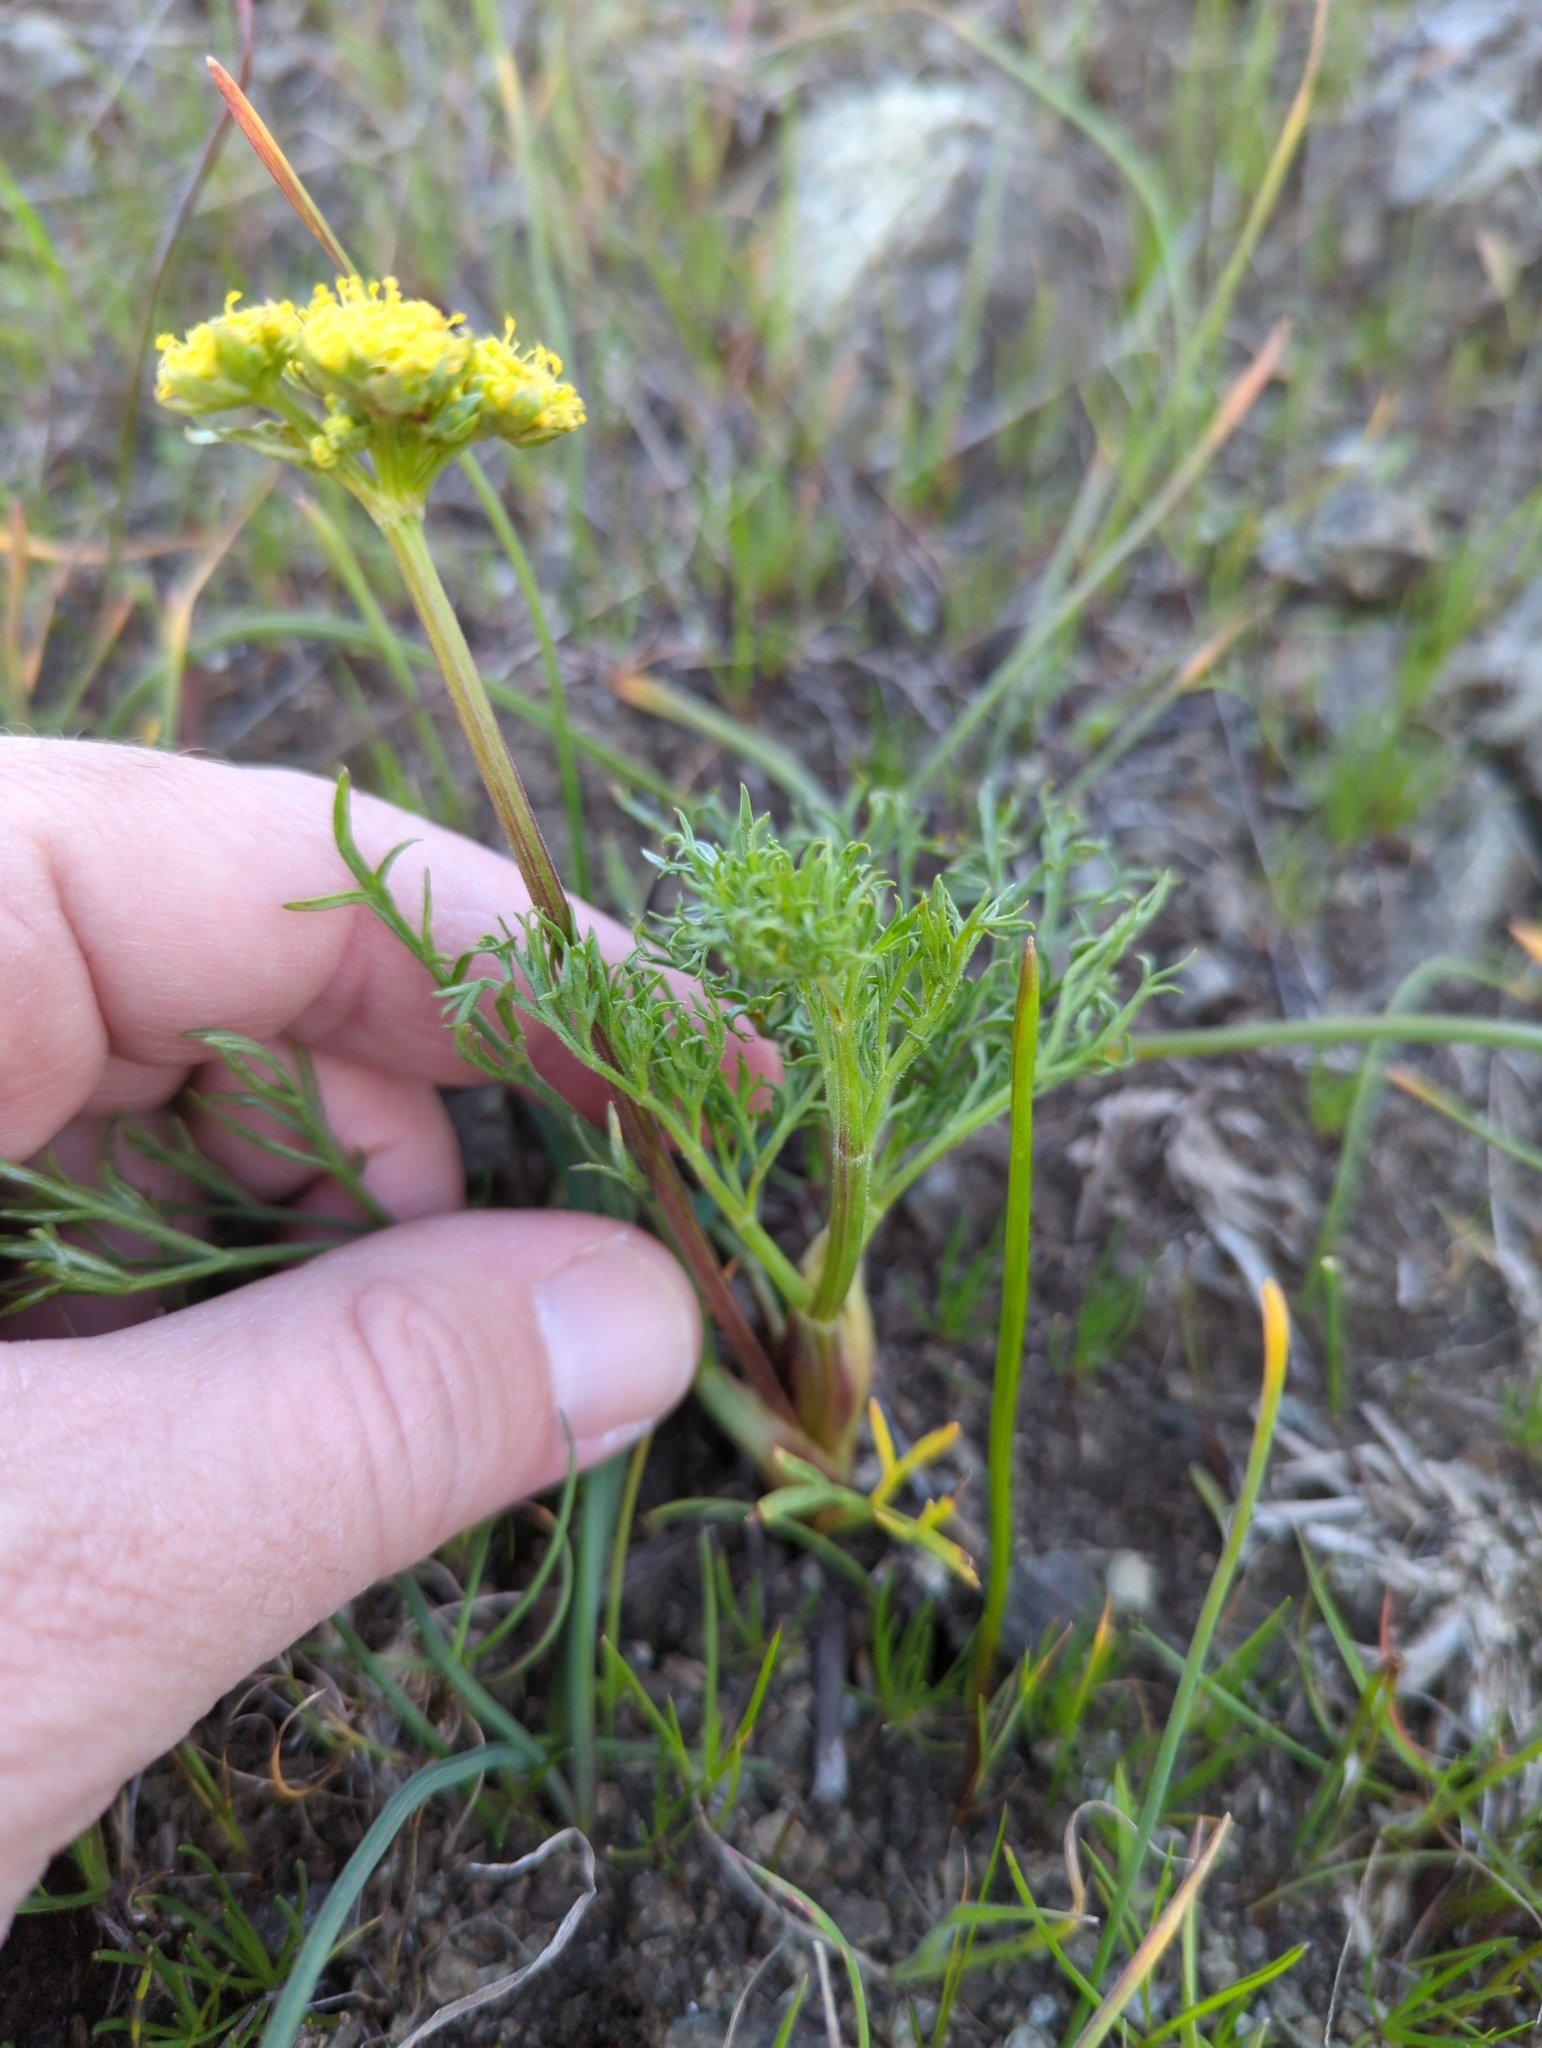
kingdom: Plantae
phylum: Tracheophyta
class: Magnoliopsida
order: Apiales
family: Apiaceae
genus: Lomatium
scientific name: Lomatium caruifolium
